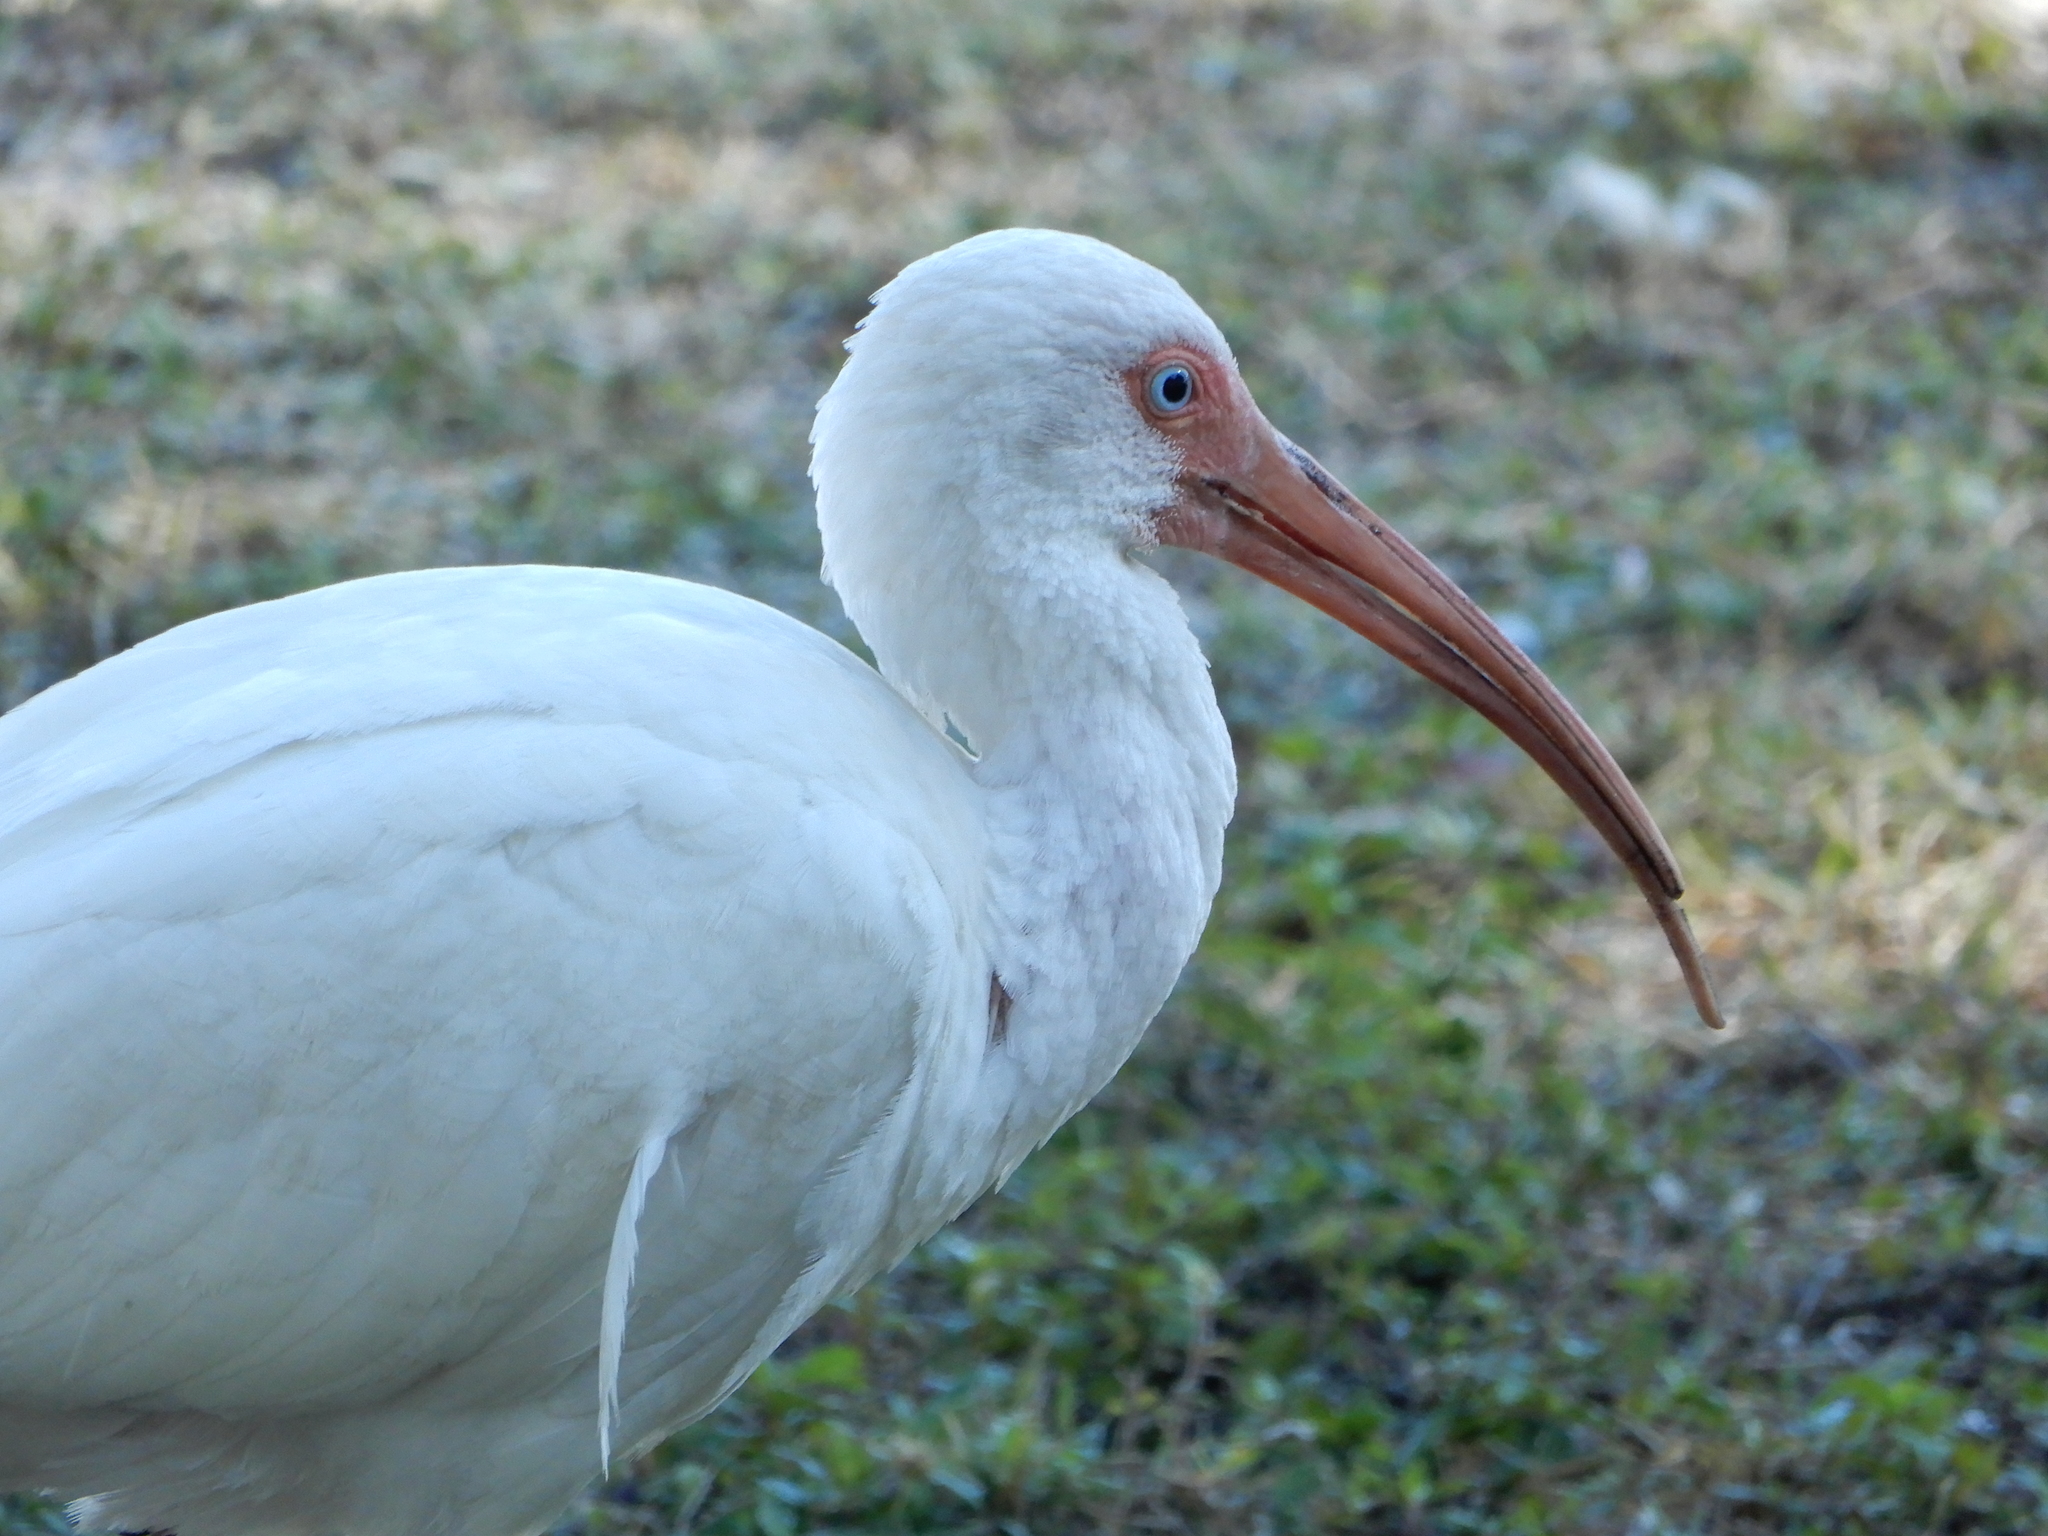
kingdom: Animalia
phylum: Chordata
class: Aves
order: Pelecaniformes
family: Threskiornithidae
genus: Eudocimus
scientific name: Eudocimus albus
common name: White ibis
